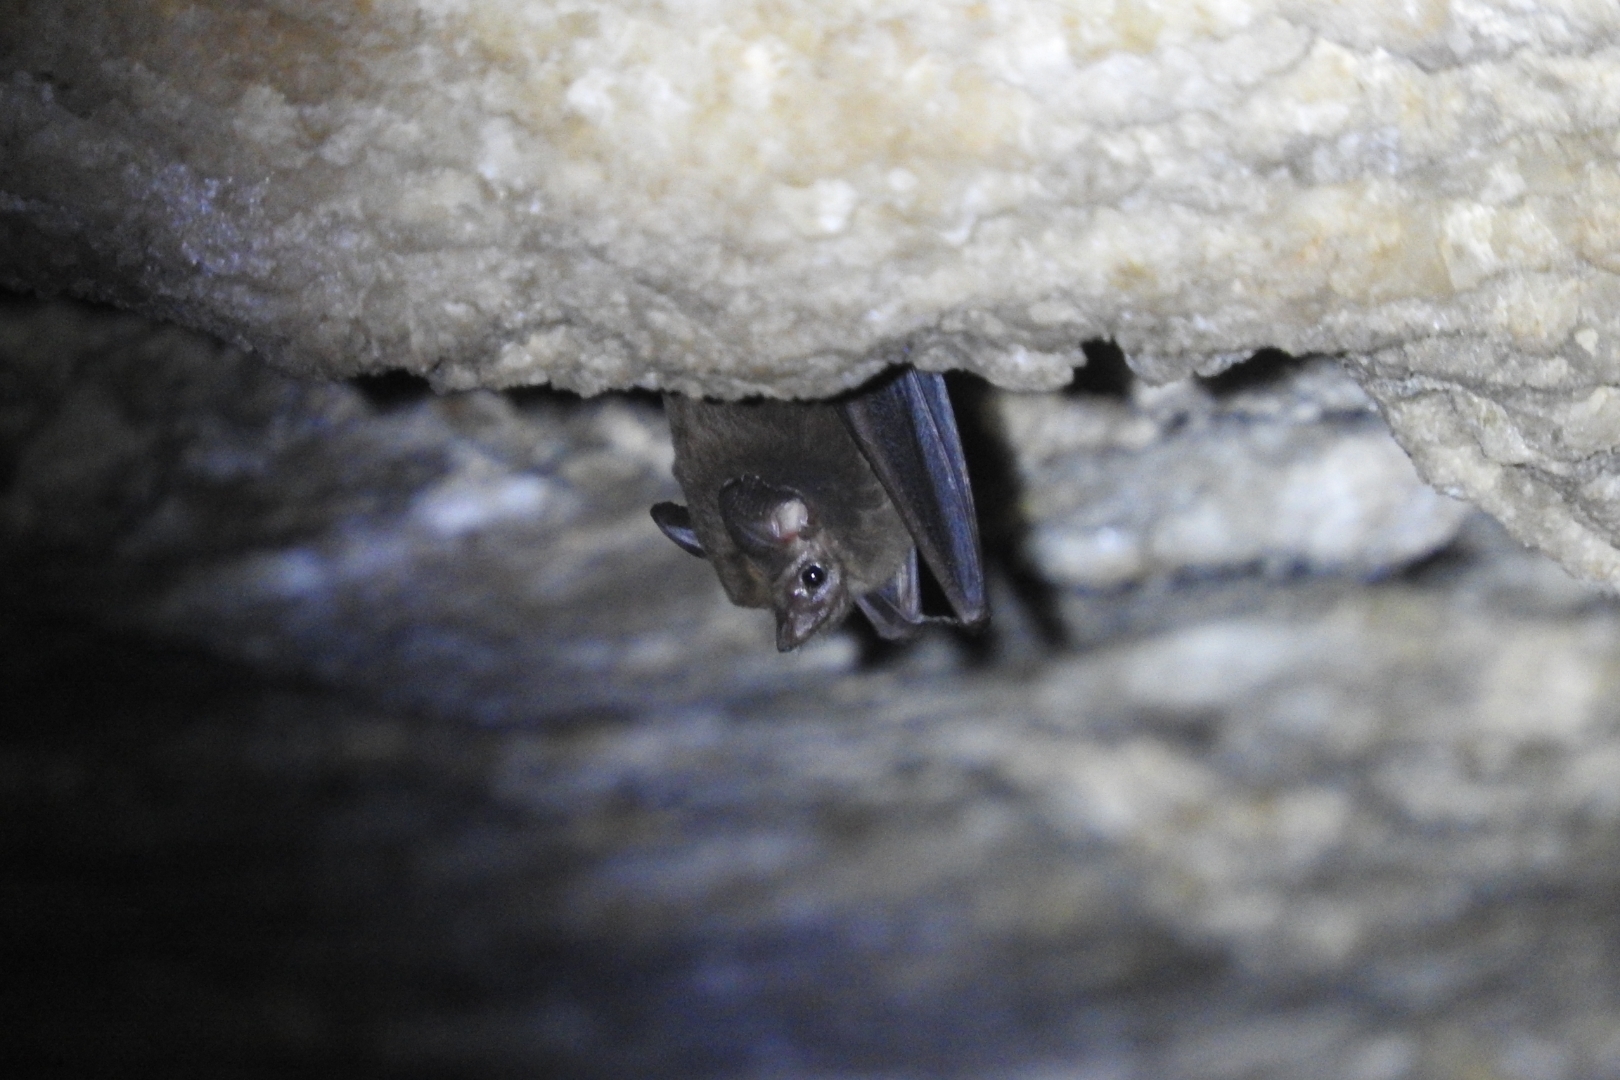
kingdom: Animalia
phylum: Chordata
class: Mammalia
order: Chiroptera
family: Emballonuridae
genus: Peropteryx
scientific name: Peropteryx macrotis
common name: Lesser dog-like bat
